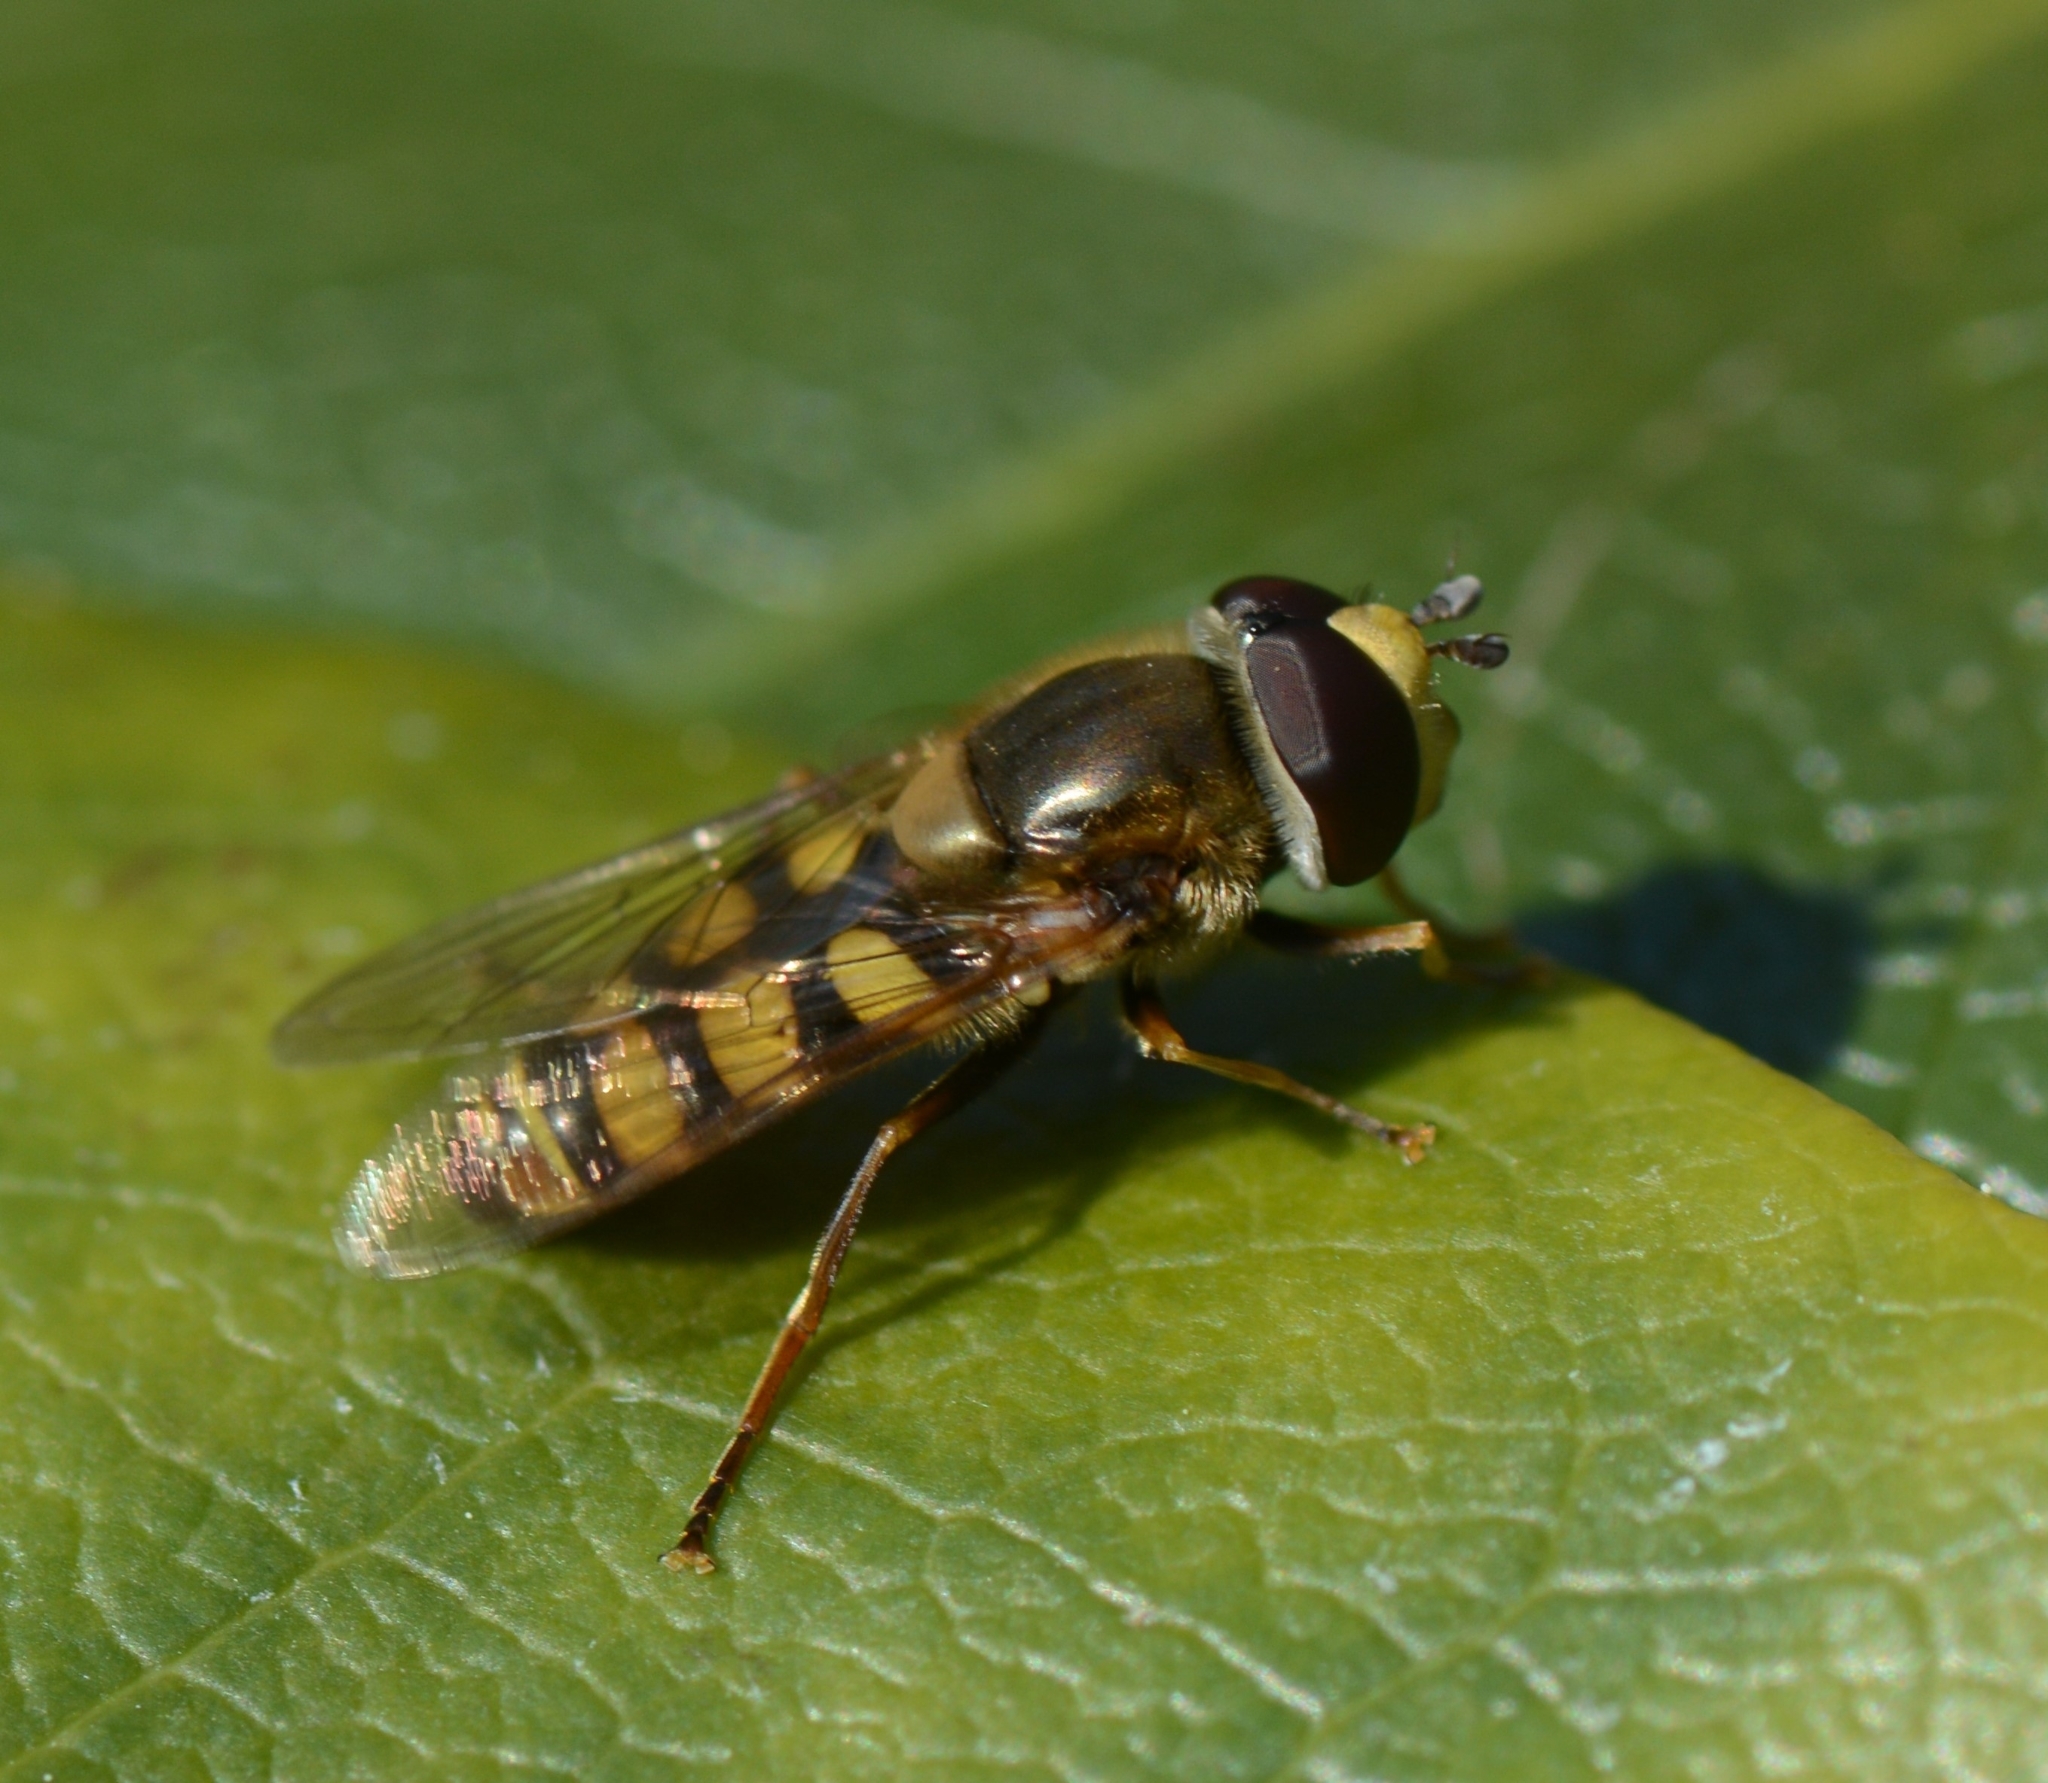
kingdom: Animalia
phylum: Arthropoda
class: Insecta
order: Diptera
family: Syrphidae
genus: Eupeodes
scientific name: Eupeodes corollae
